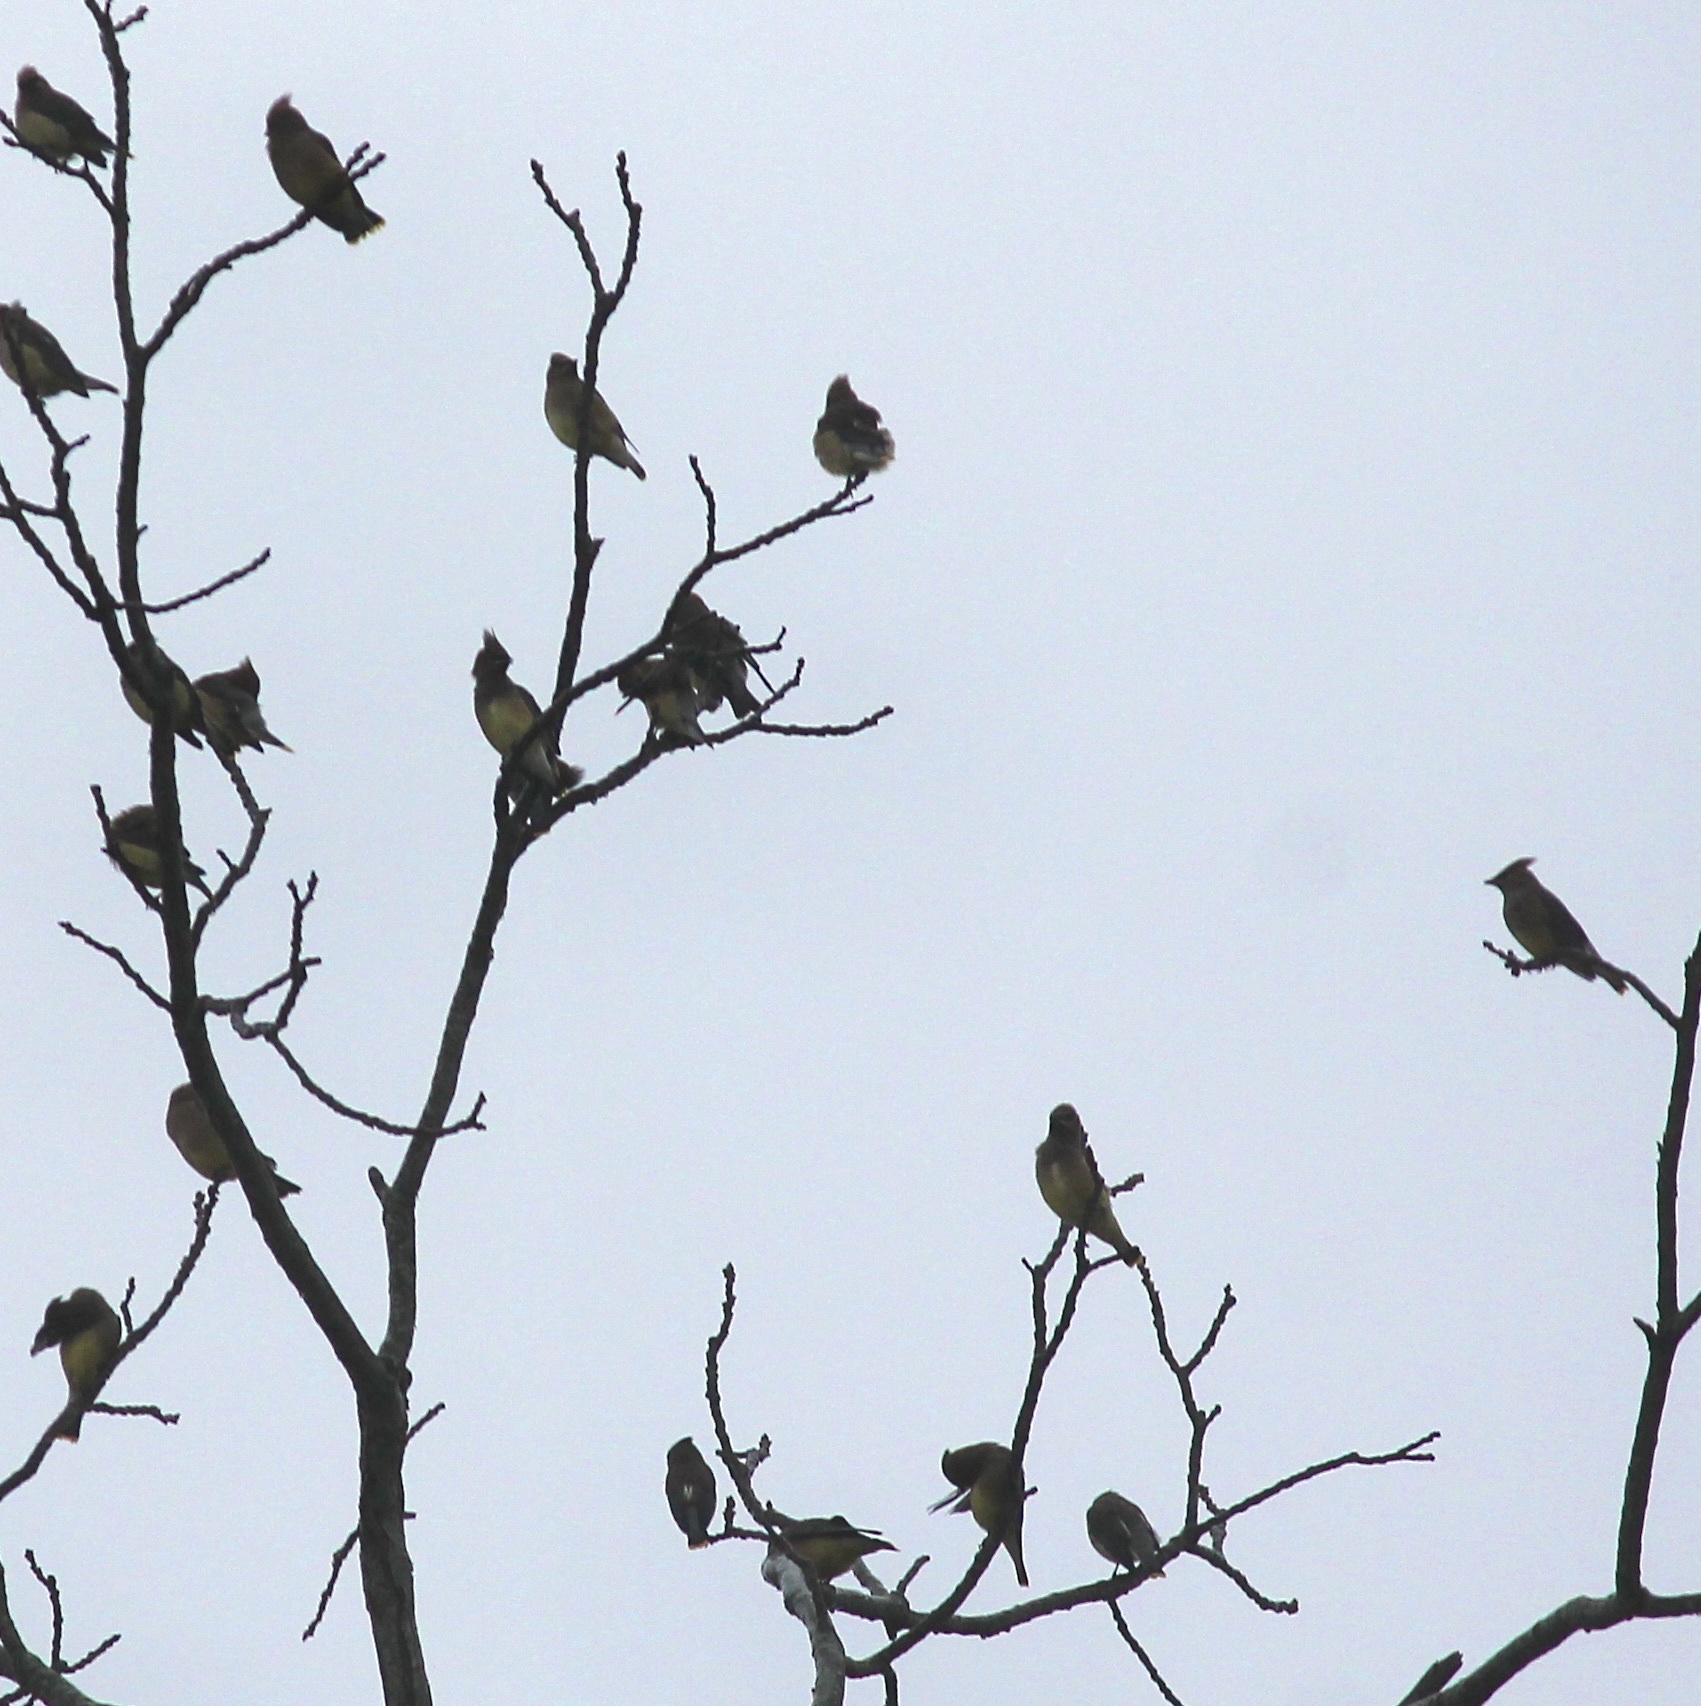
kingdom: Animalia
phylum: Chordata
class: Aves
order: Passeriformes
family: Bombycillidae
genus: Bombycilla
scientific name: Bombycilla cedrorum
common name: Cedar waxwing
